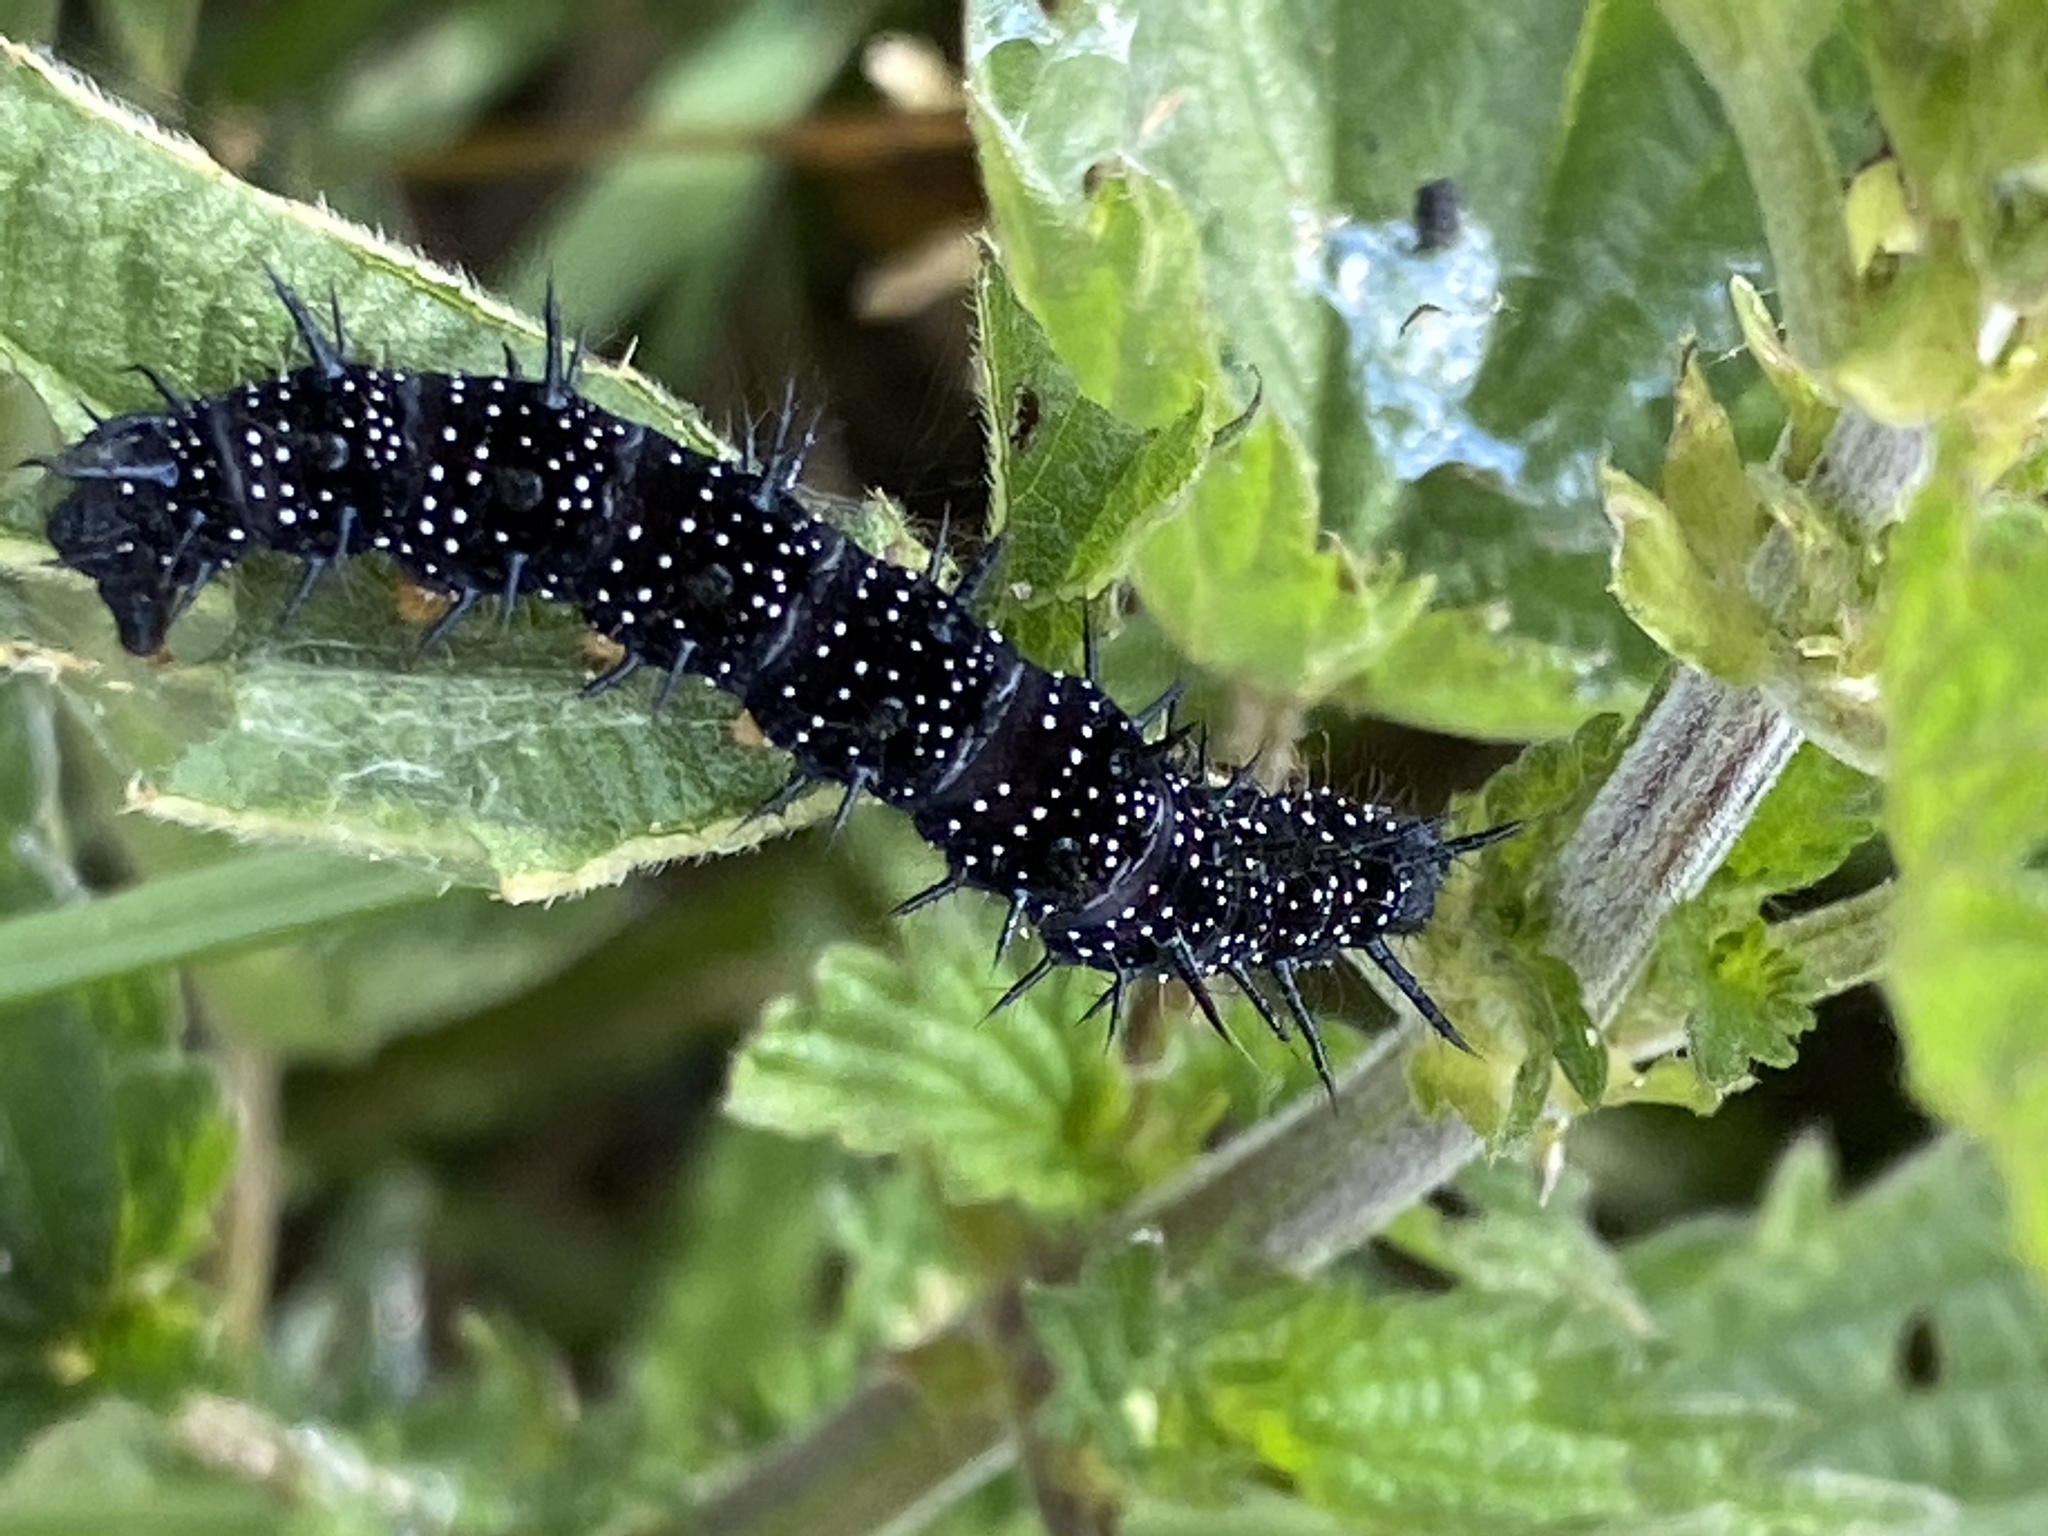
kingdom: Animalia
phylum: Arthropoda
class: Insecta
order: Lepidoptera
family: Nymphalidae
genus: Aglais
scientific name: Aglais io
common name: Peacock
